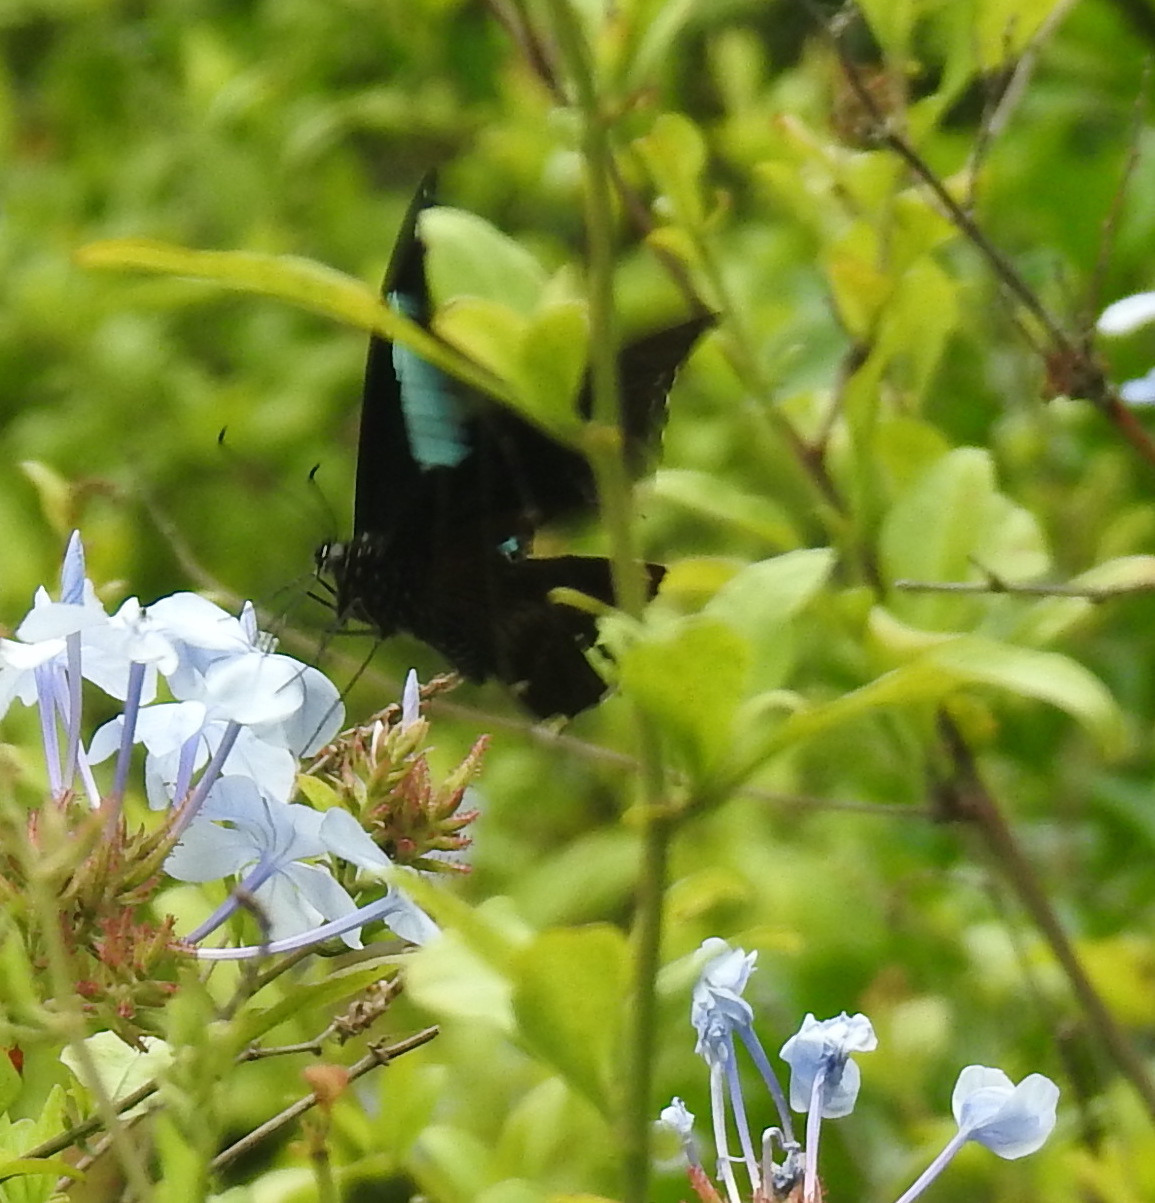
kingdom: Animalia
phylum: Arthropoda
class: Insecta
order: Lepidoptera
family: Papilionidae
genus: Papilio
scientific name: Papilio nireus
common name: Greenbanded swallowtail
